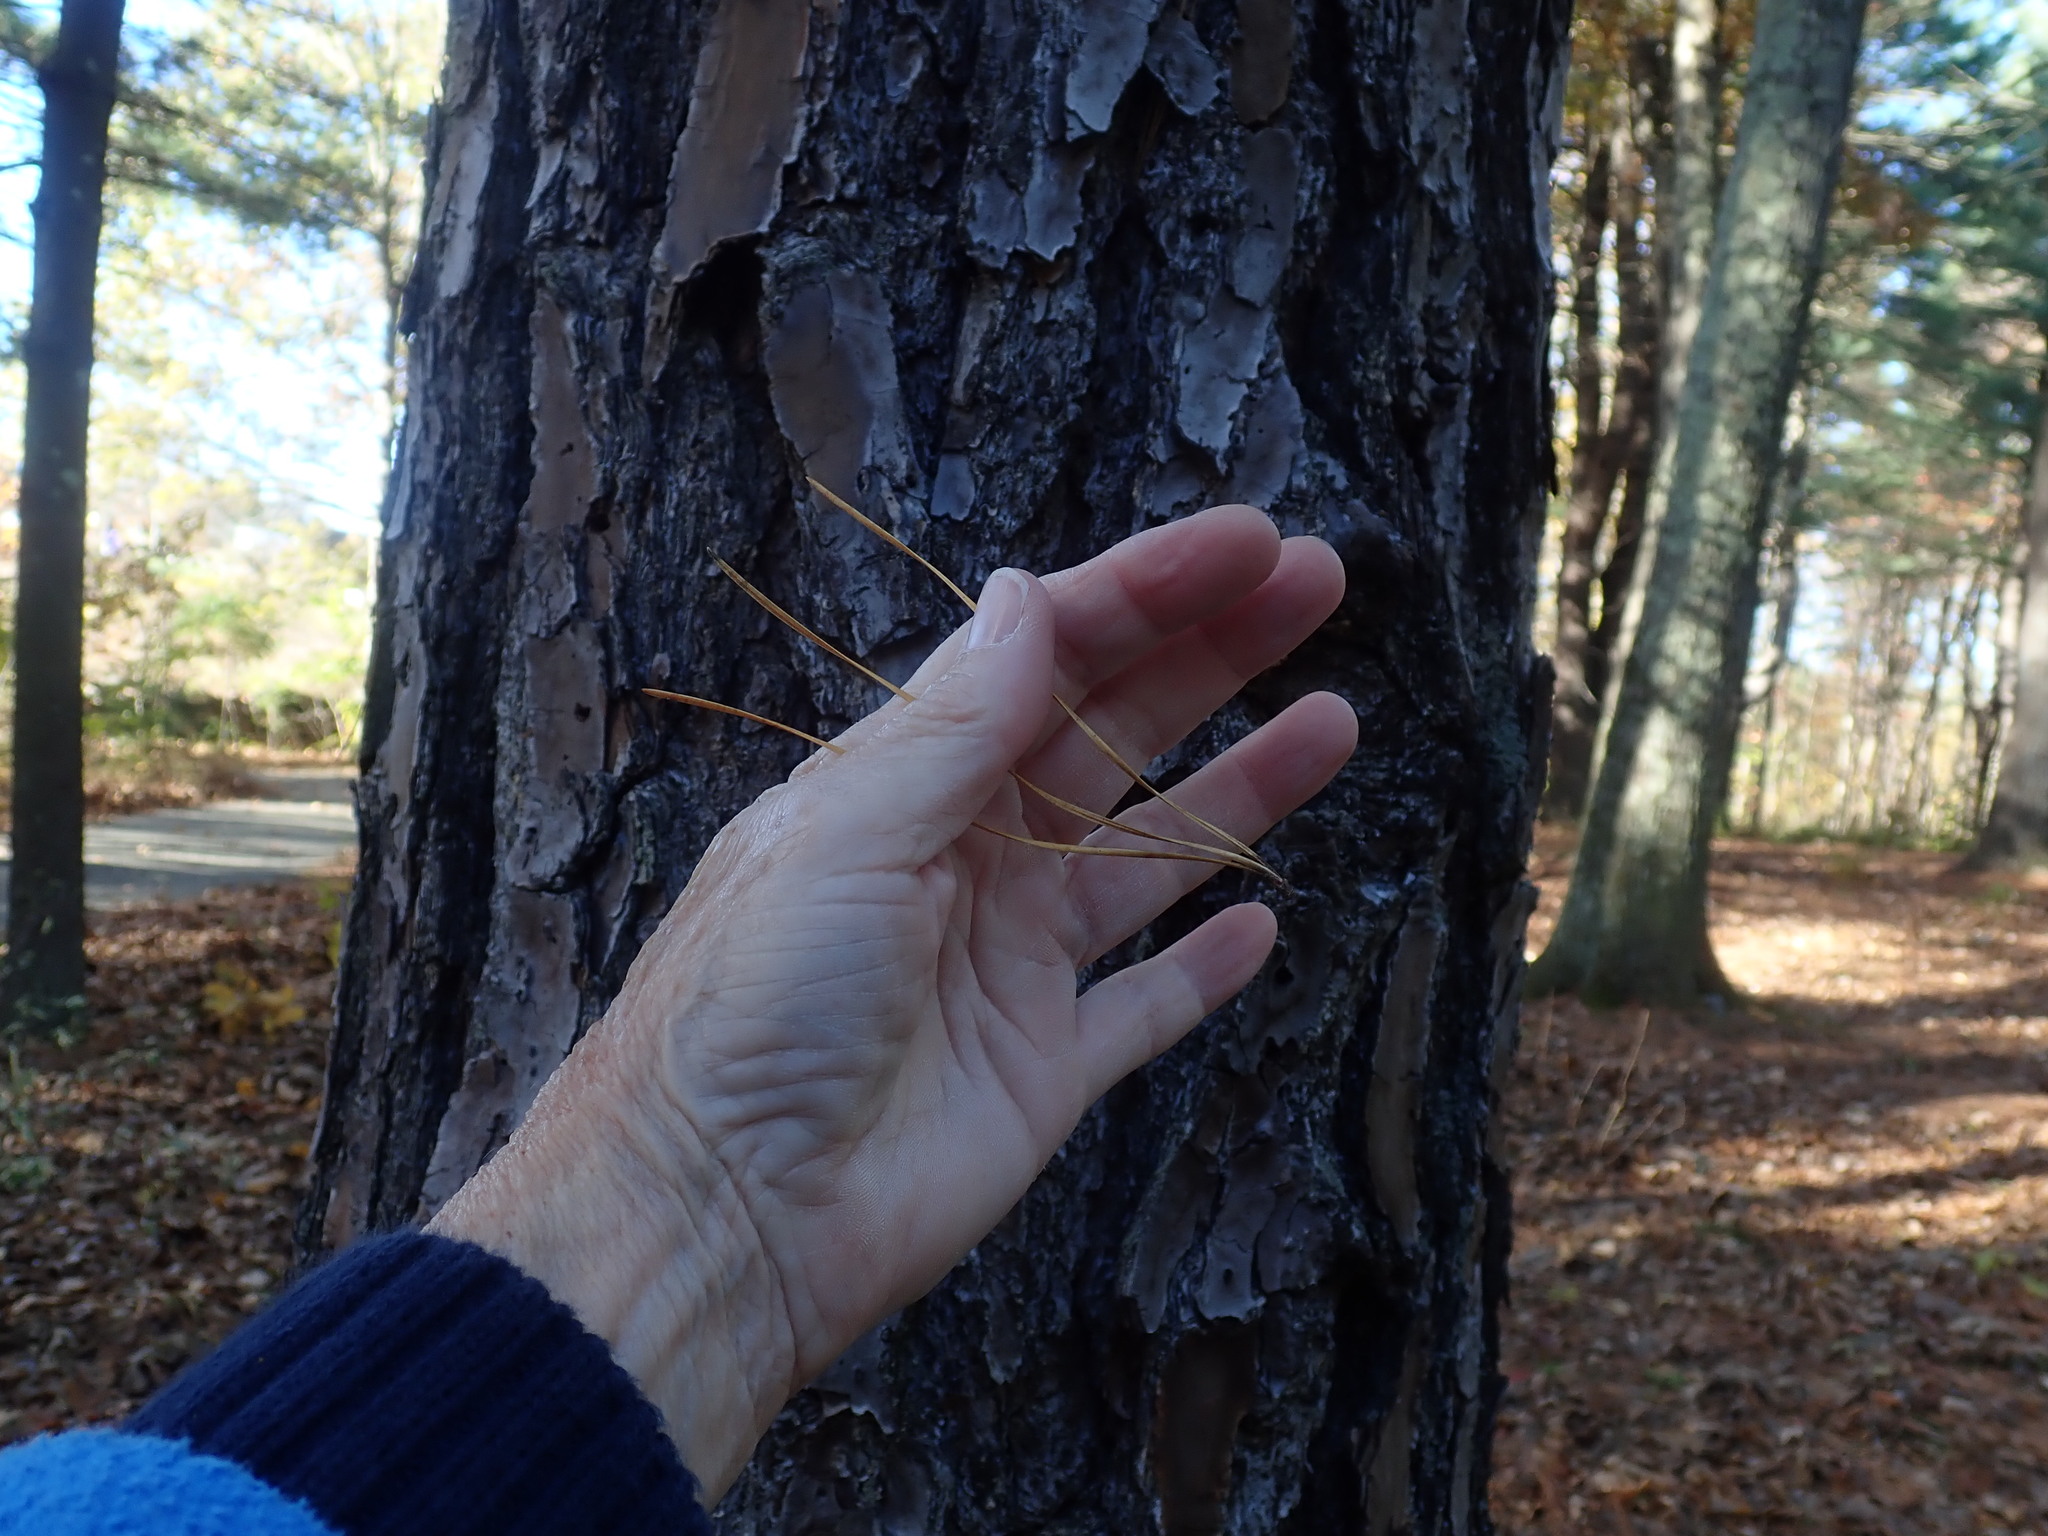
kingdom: Plantae
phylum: Tracheophyta
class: Pinopsida
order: Pinales
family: Pinaceae
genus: Pinus
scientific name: Pinus rigida
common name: Pitch pine
